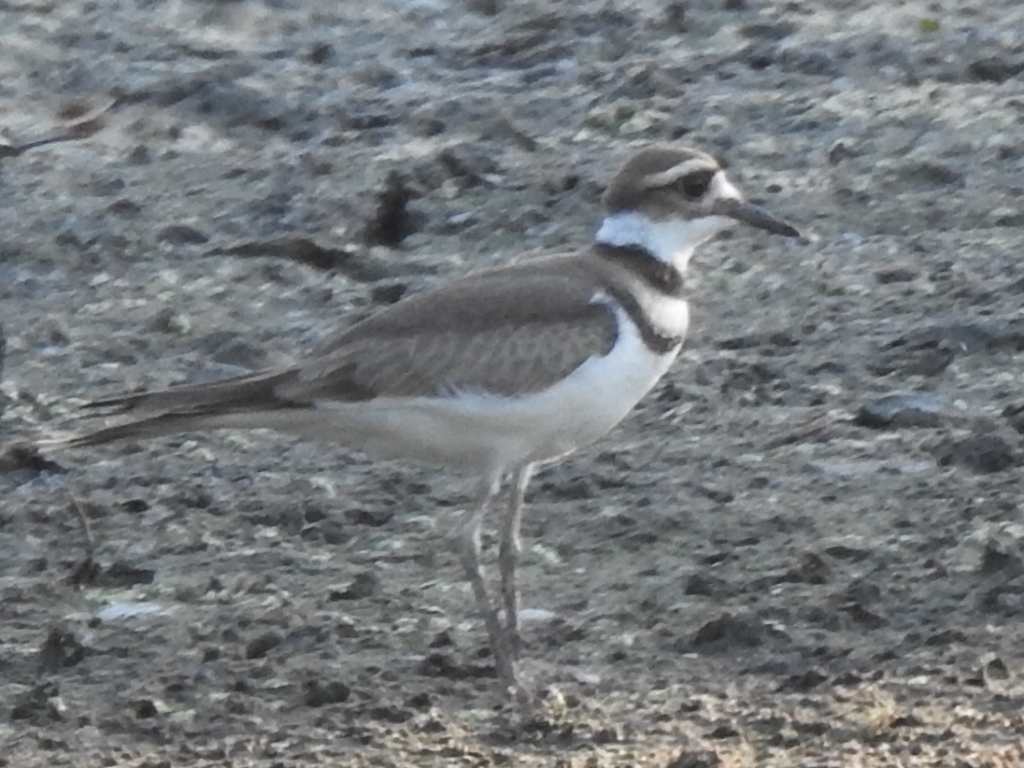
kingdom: Animalia
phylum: Chordata
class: Aves
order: Charadriiformes
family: Charadriidae
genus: Charadrius
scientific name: Charadrius vociferus
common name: Killdeer
